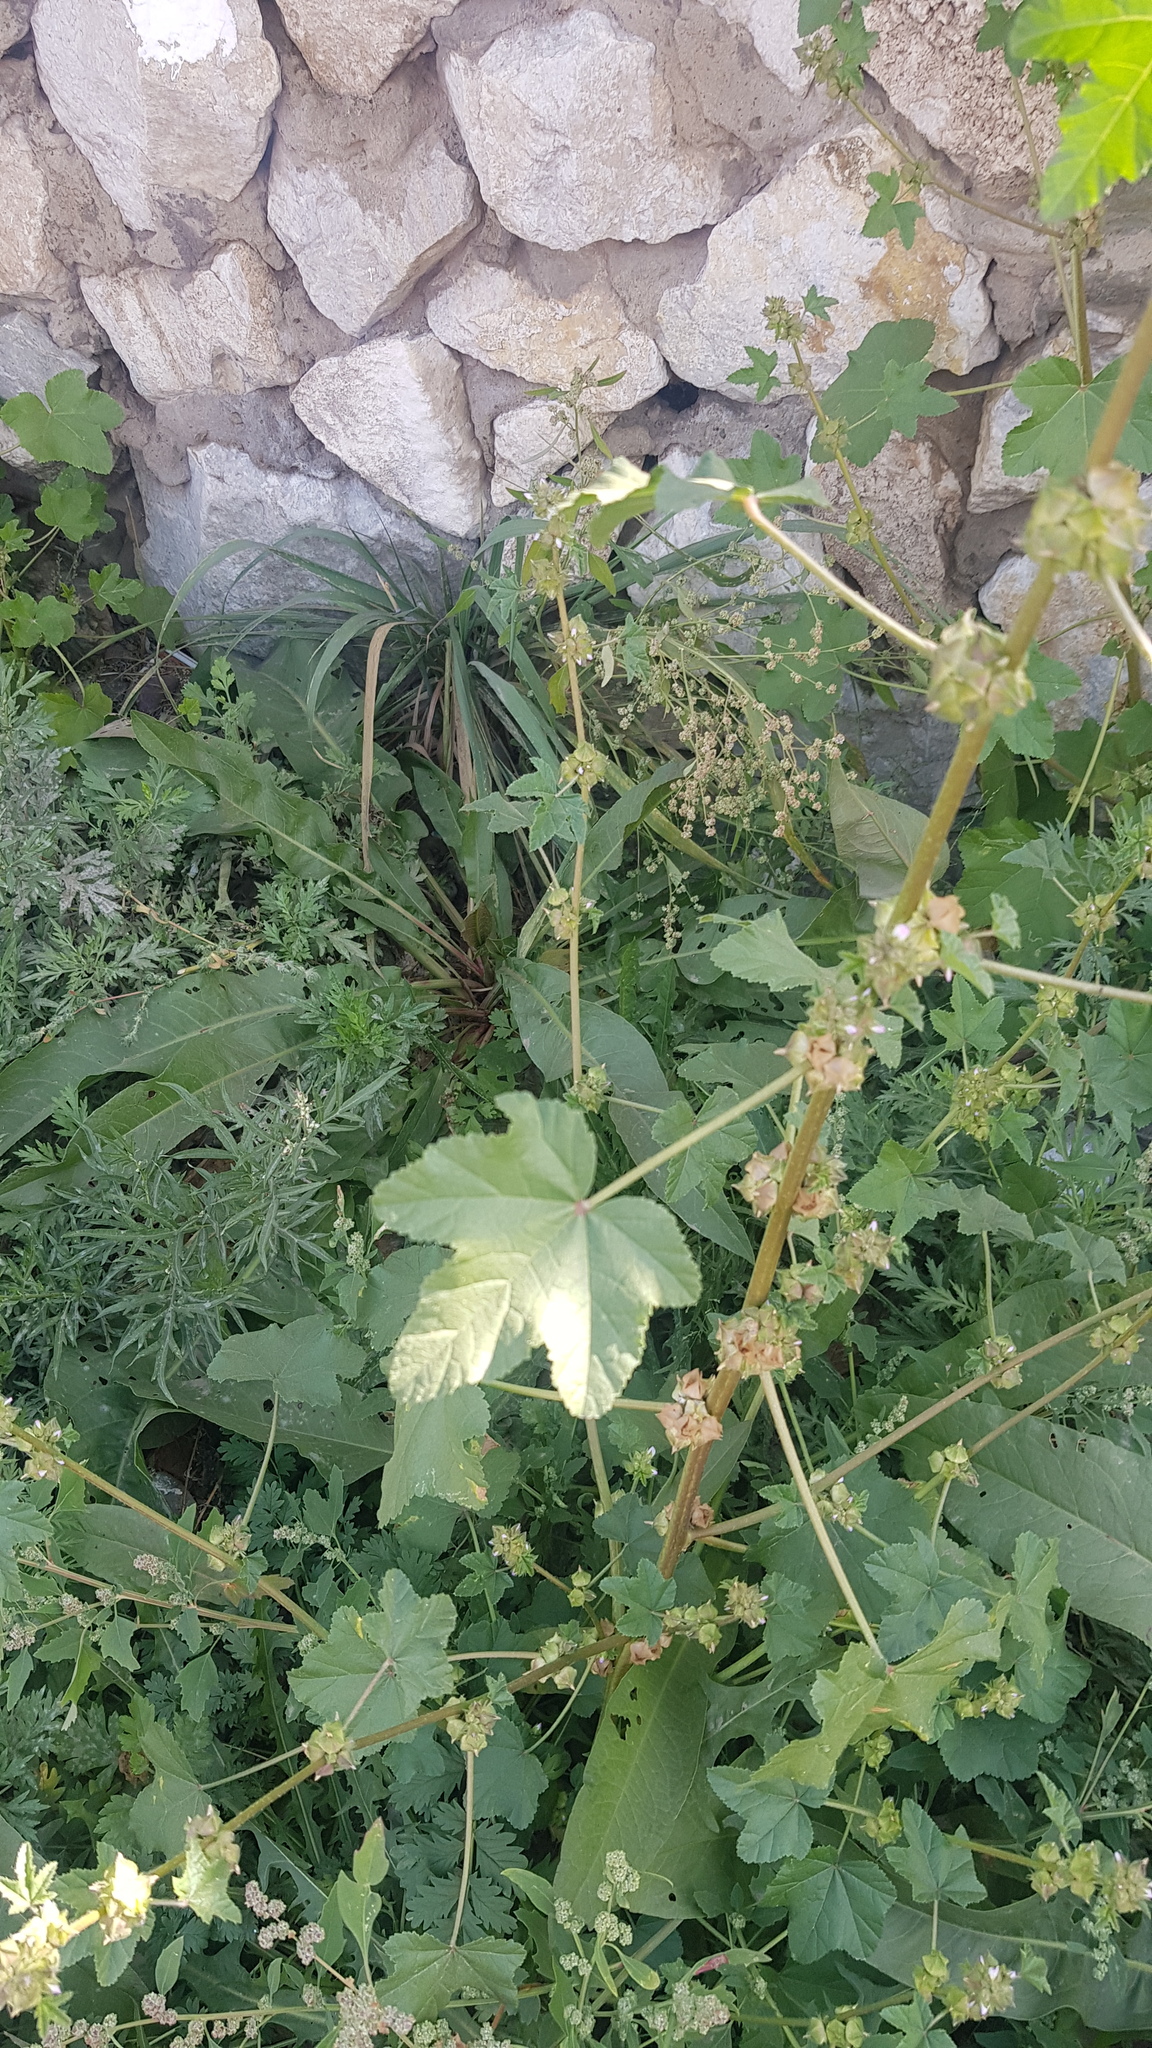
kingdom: Plantae
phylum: Tracheophyta
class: Magnoliopsida
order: Malvales
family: Malvaceae
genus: Malva
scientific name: Malva verticillata
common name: Chinese mallow
